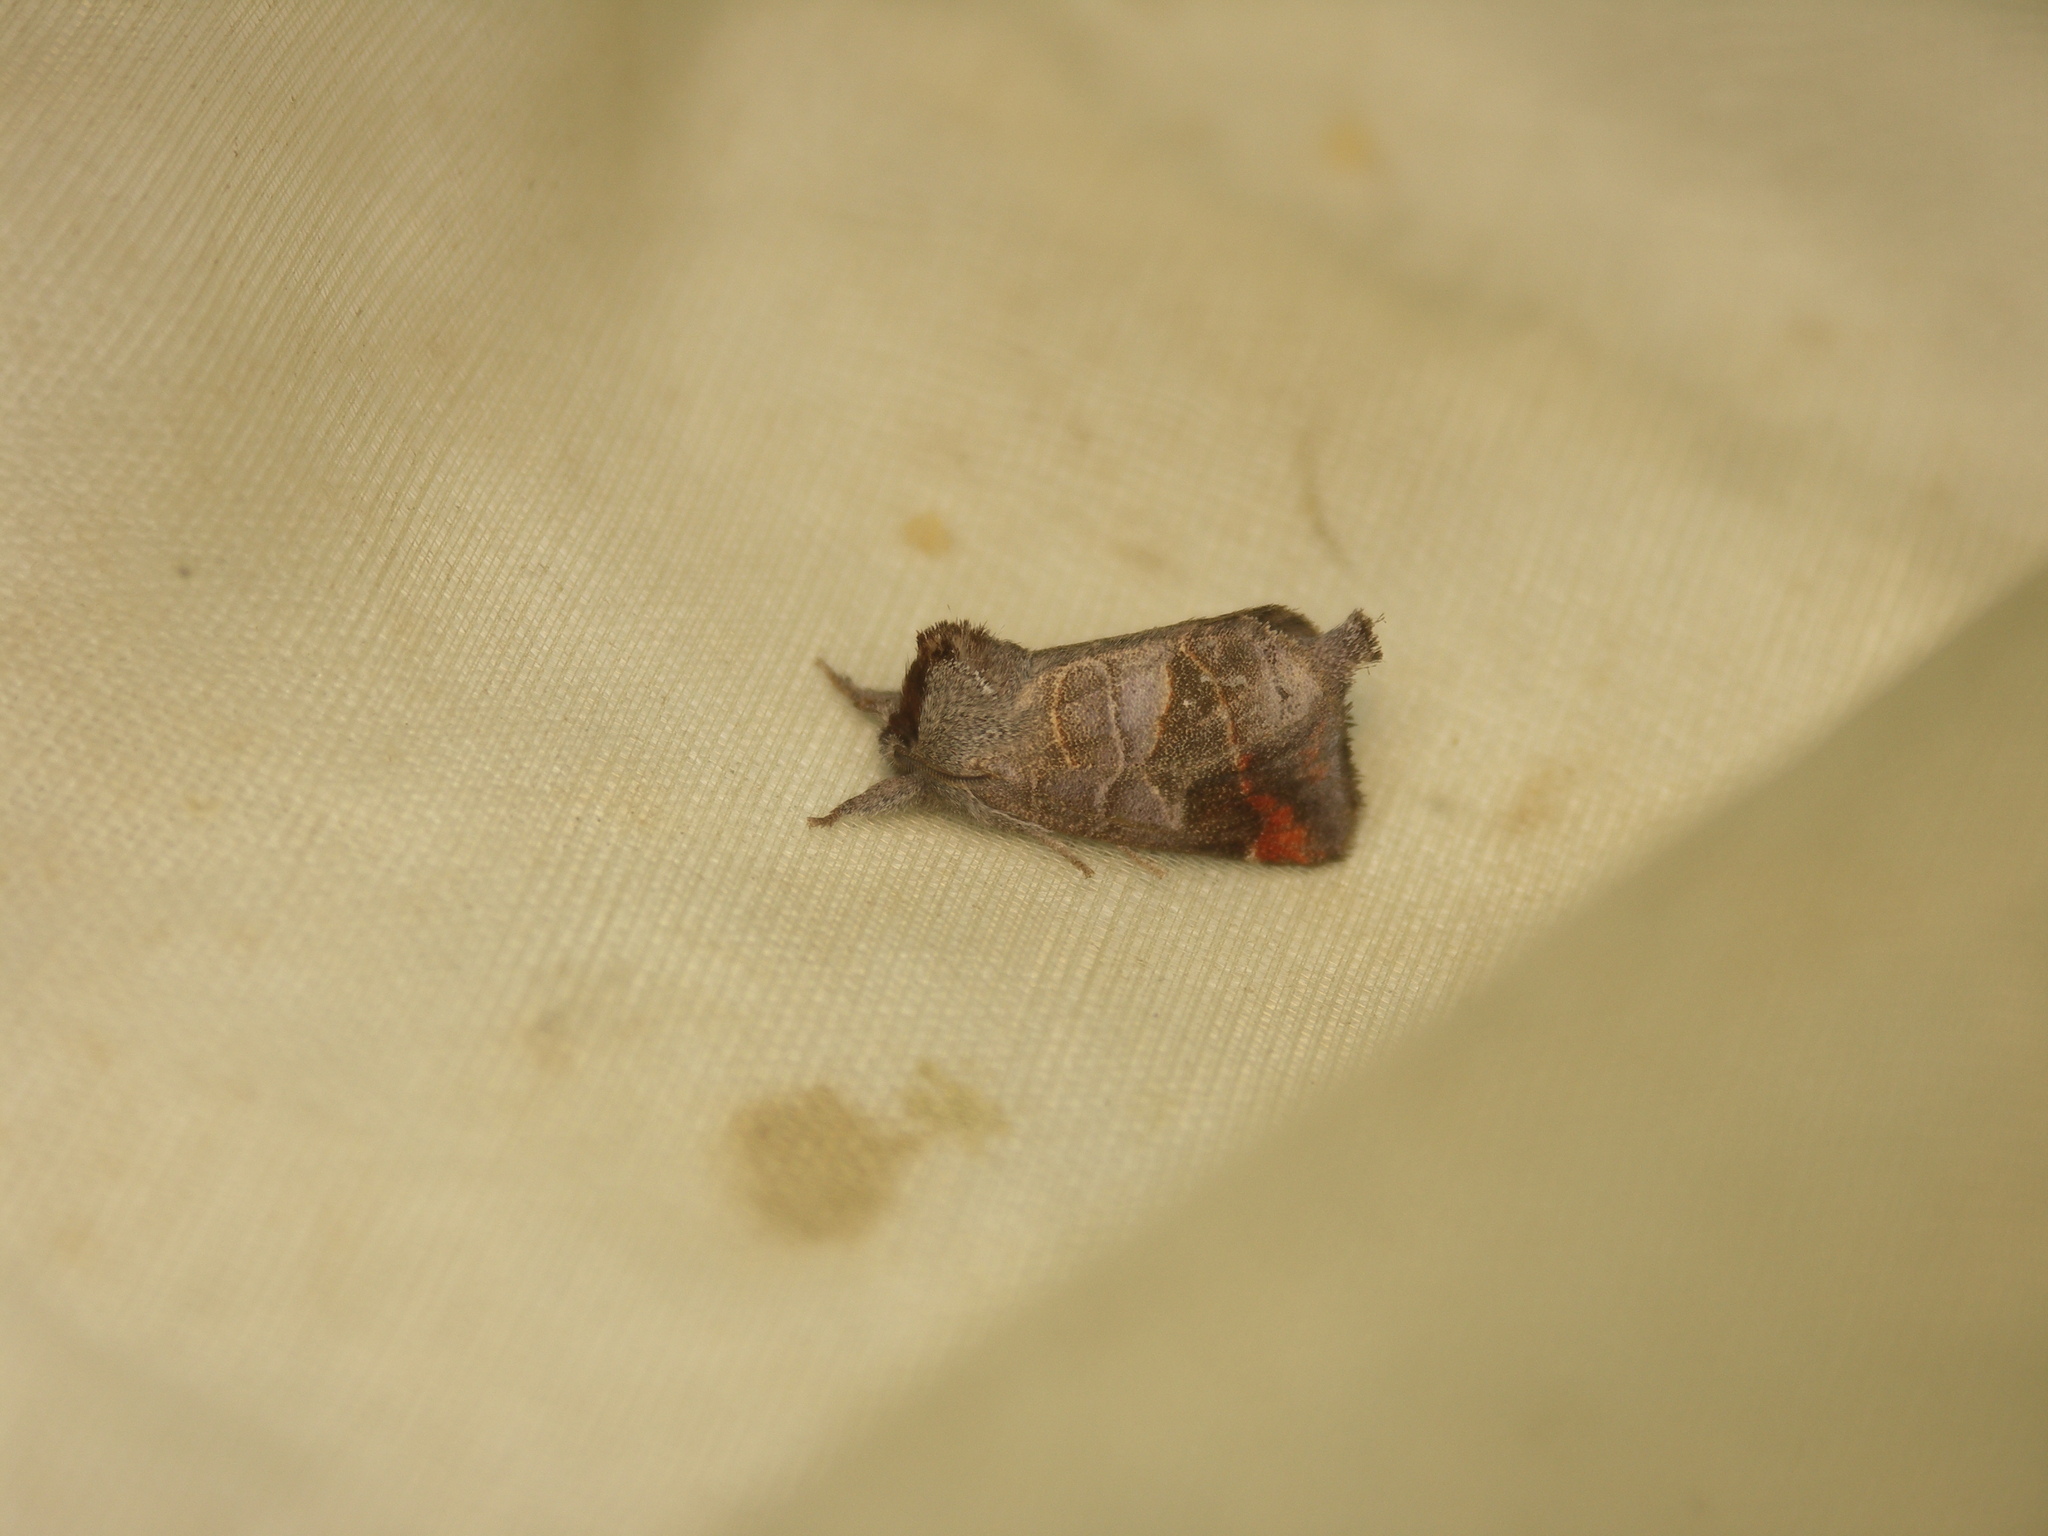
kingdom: Animalia
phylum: Arthropoda
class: Insecta
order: Lepidoptera
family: Notodontidae
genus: Clostera
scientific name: Clostera pigra
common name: Small chocolate-tip
